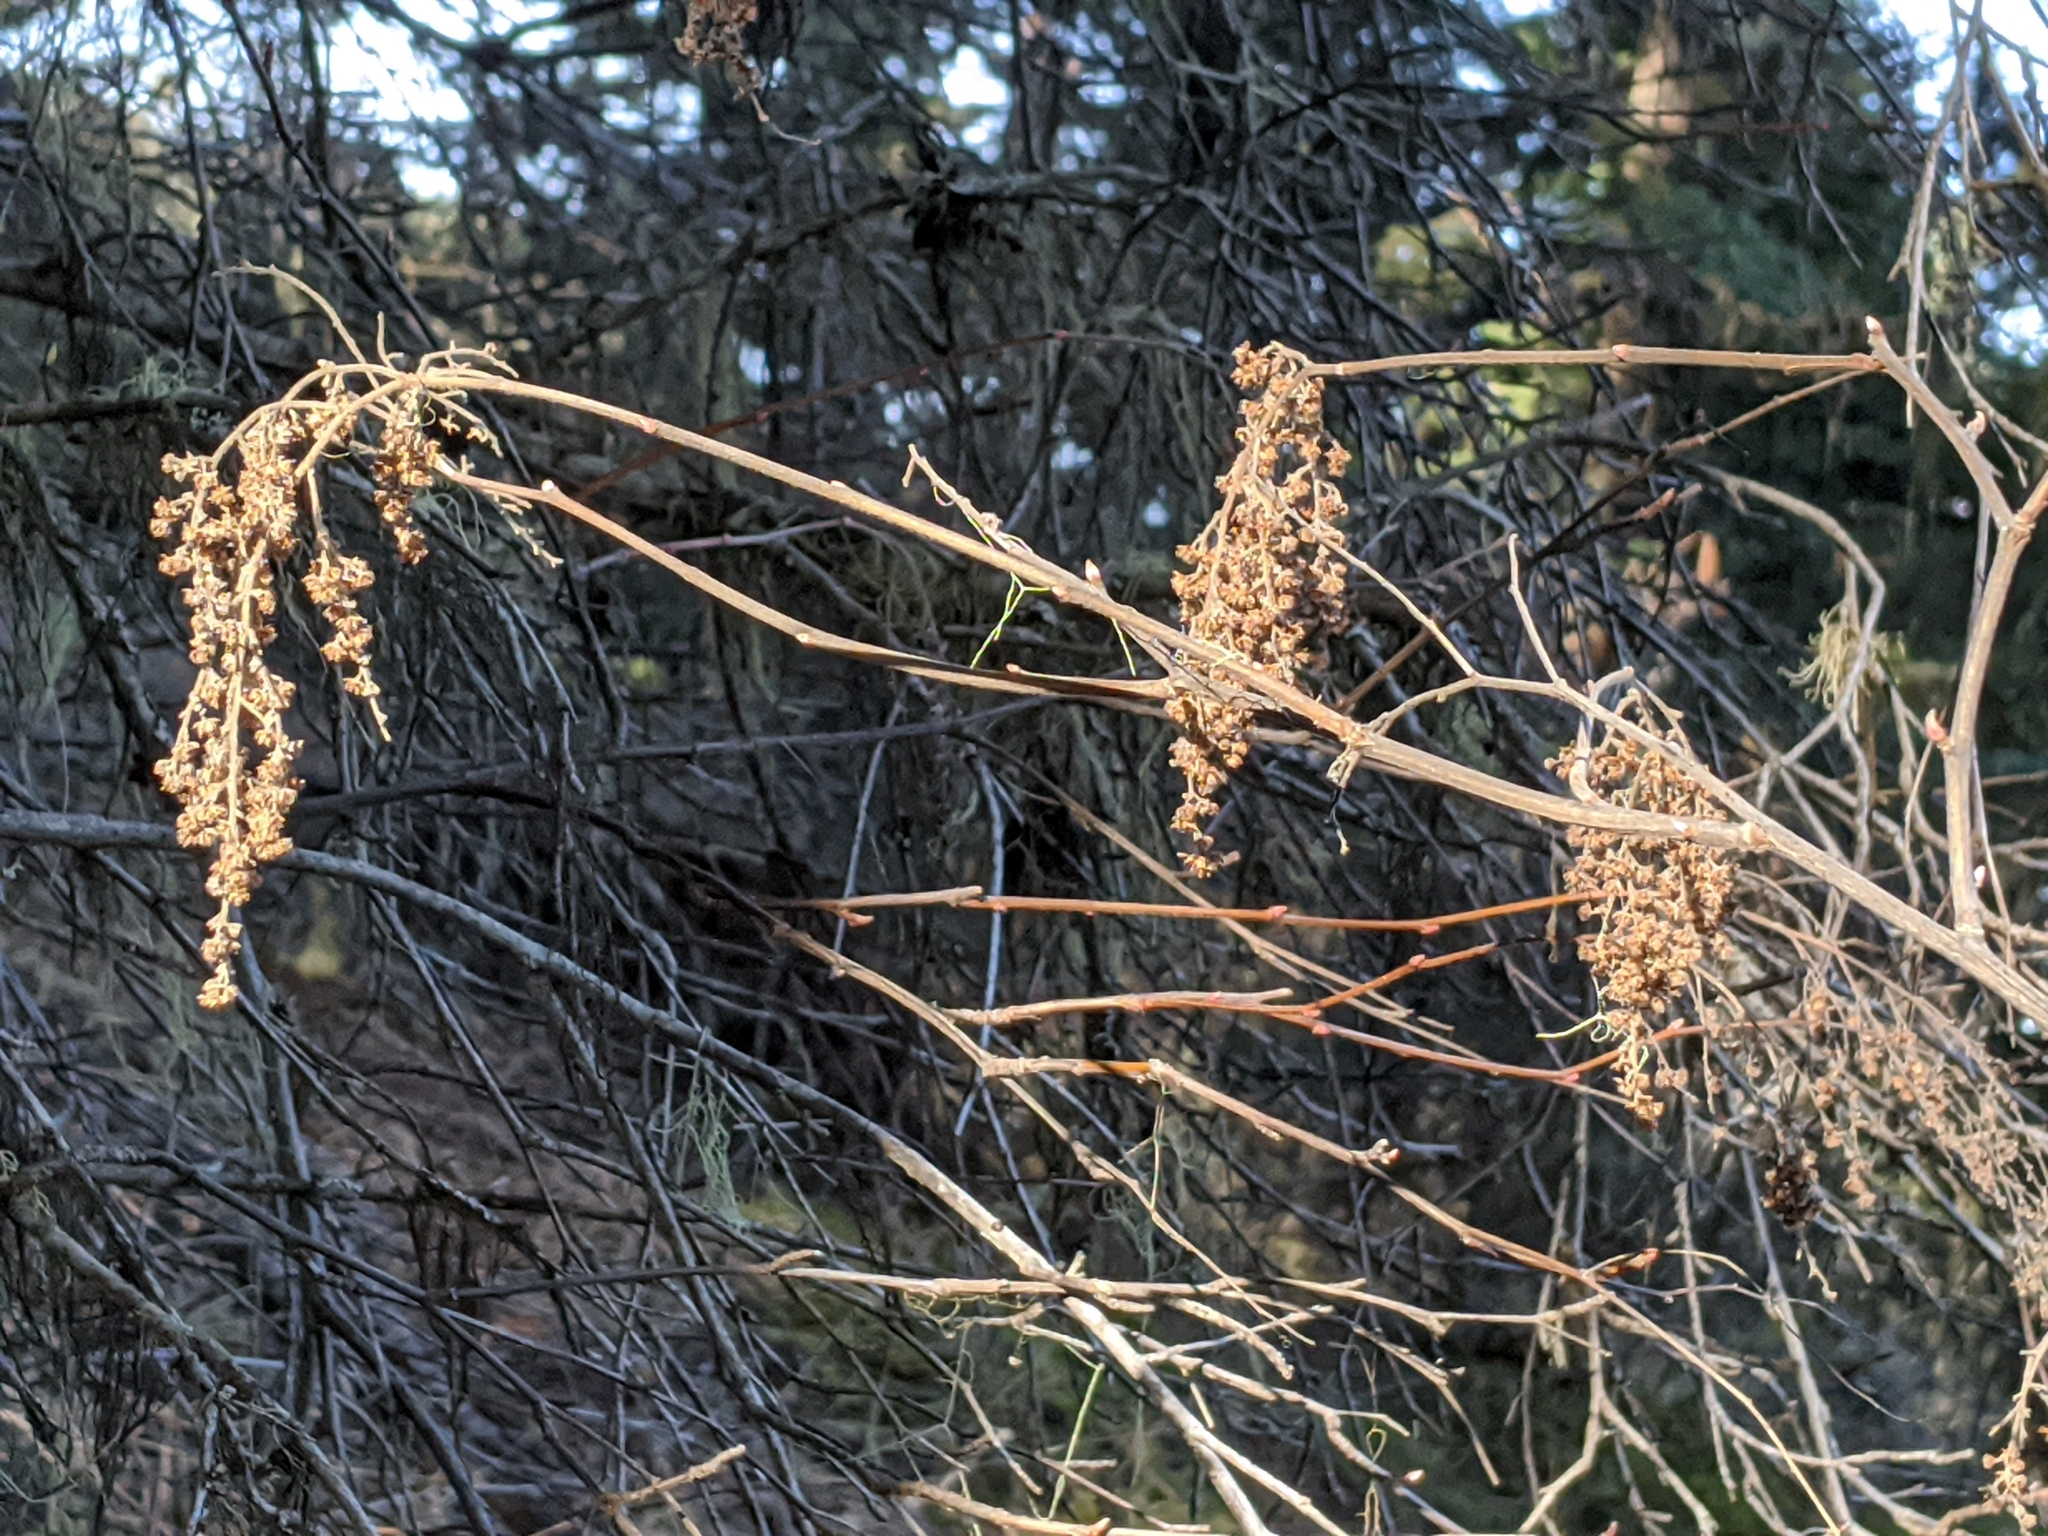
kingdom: Plantae
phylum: Tracheophyta
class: Magnoliopsida
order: Rosales
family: Rosaceae
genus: Holodiscus
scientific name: Holodiscus discolor
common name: Oceanspray
